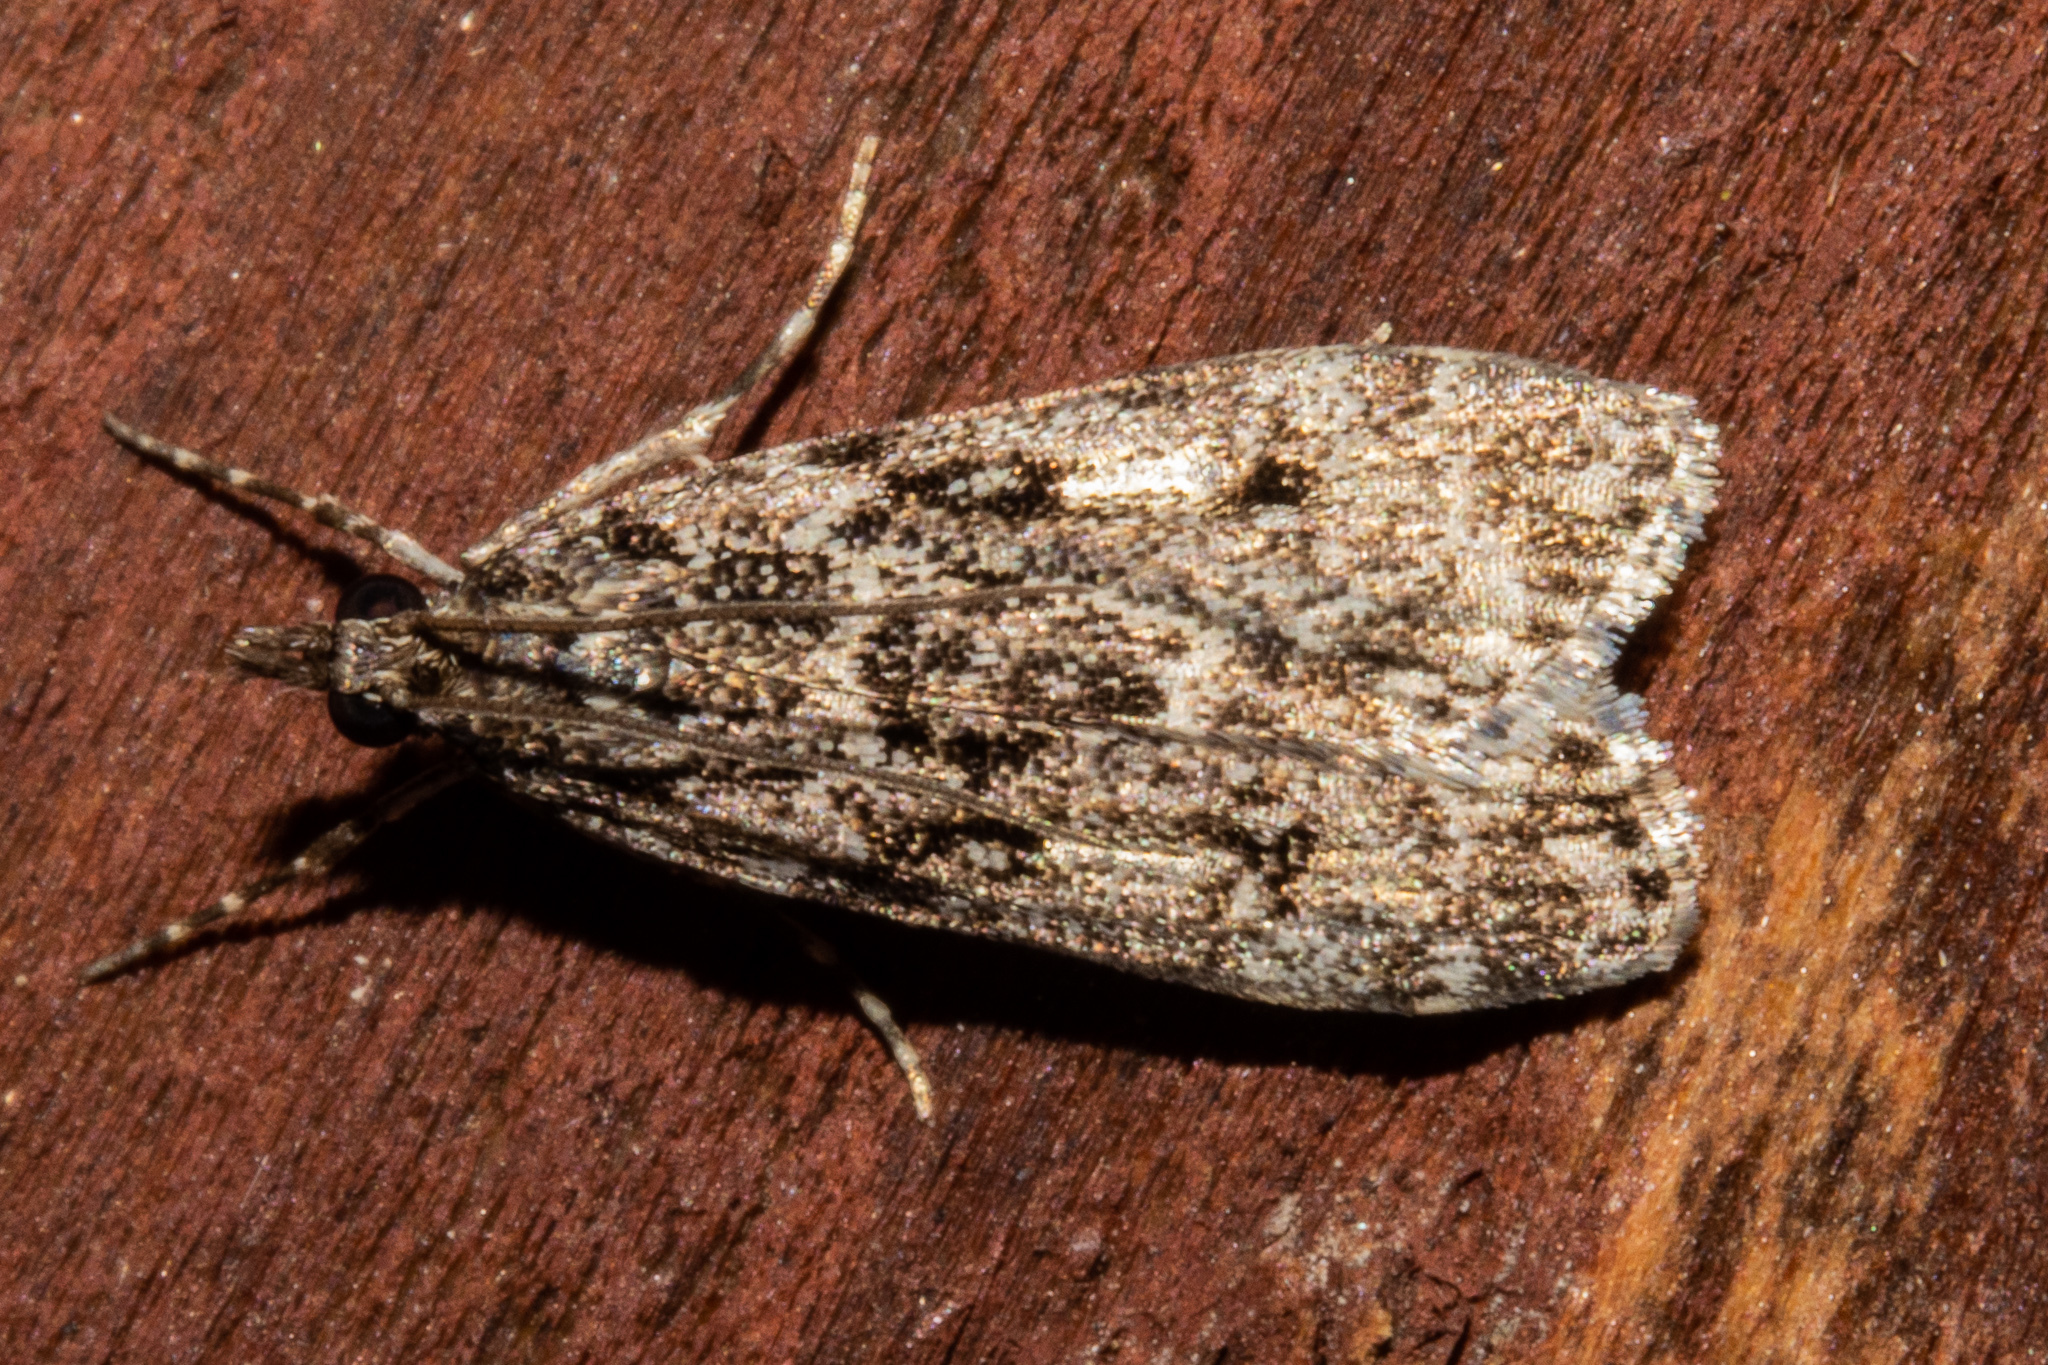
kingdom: Animalia
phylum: Arthropoda
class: Insecta
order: Lepidoptera
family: Crambidae
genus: Eudonia
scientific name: Eudonia philerga
